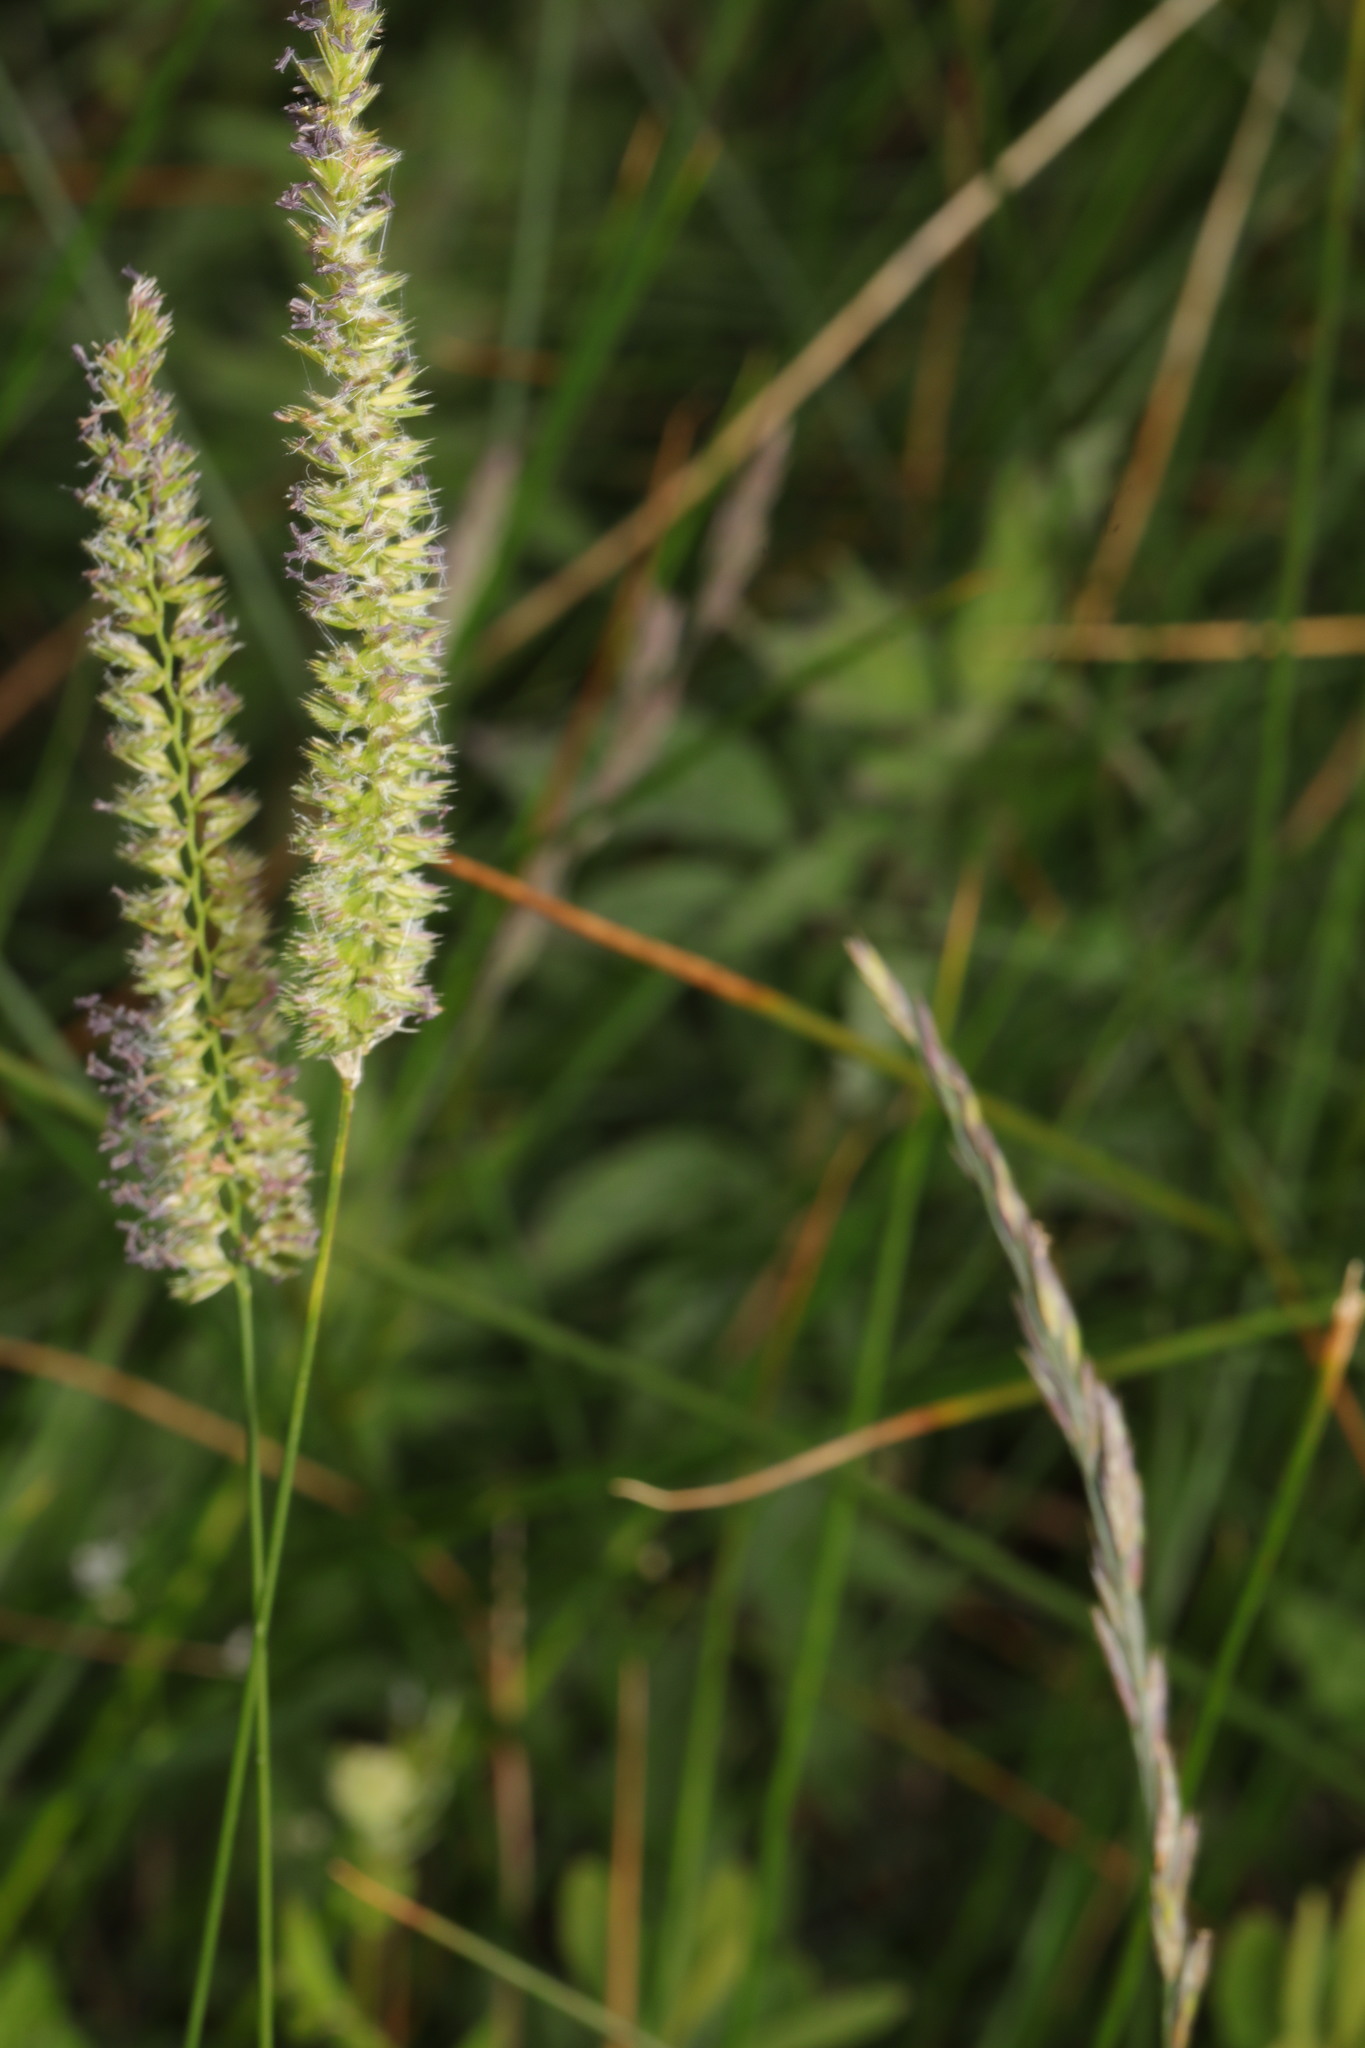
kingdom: Plantae
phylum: Tracheophyta
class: Liliopsida
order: Poales
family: Poaceae
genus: Cynosurus
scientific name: Cynosurus cristatus
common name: Crested dog's-tail
